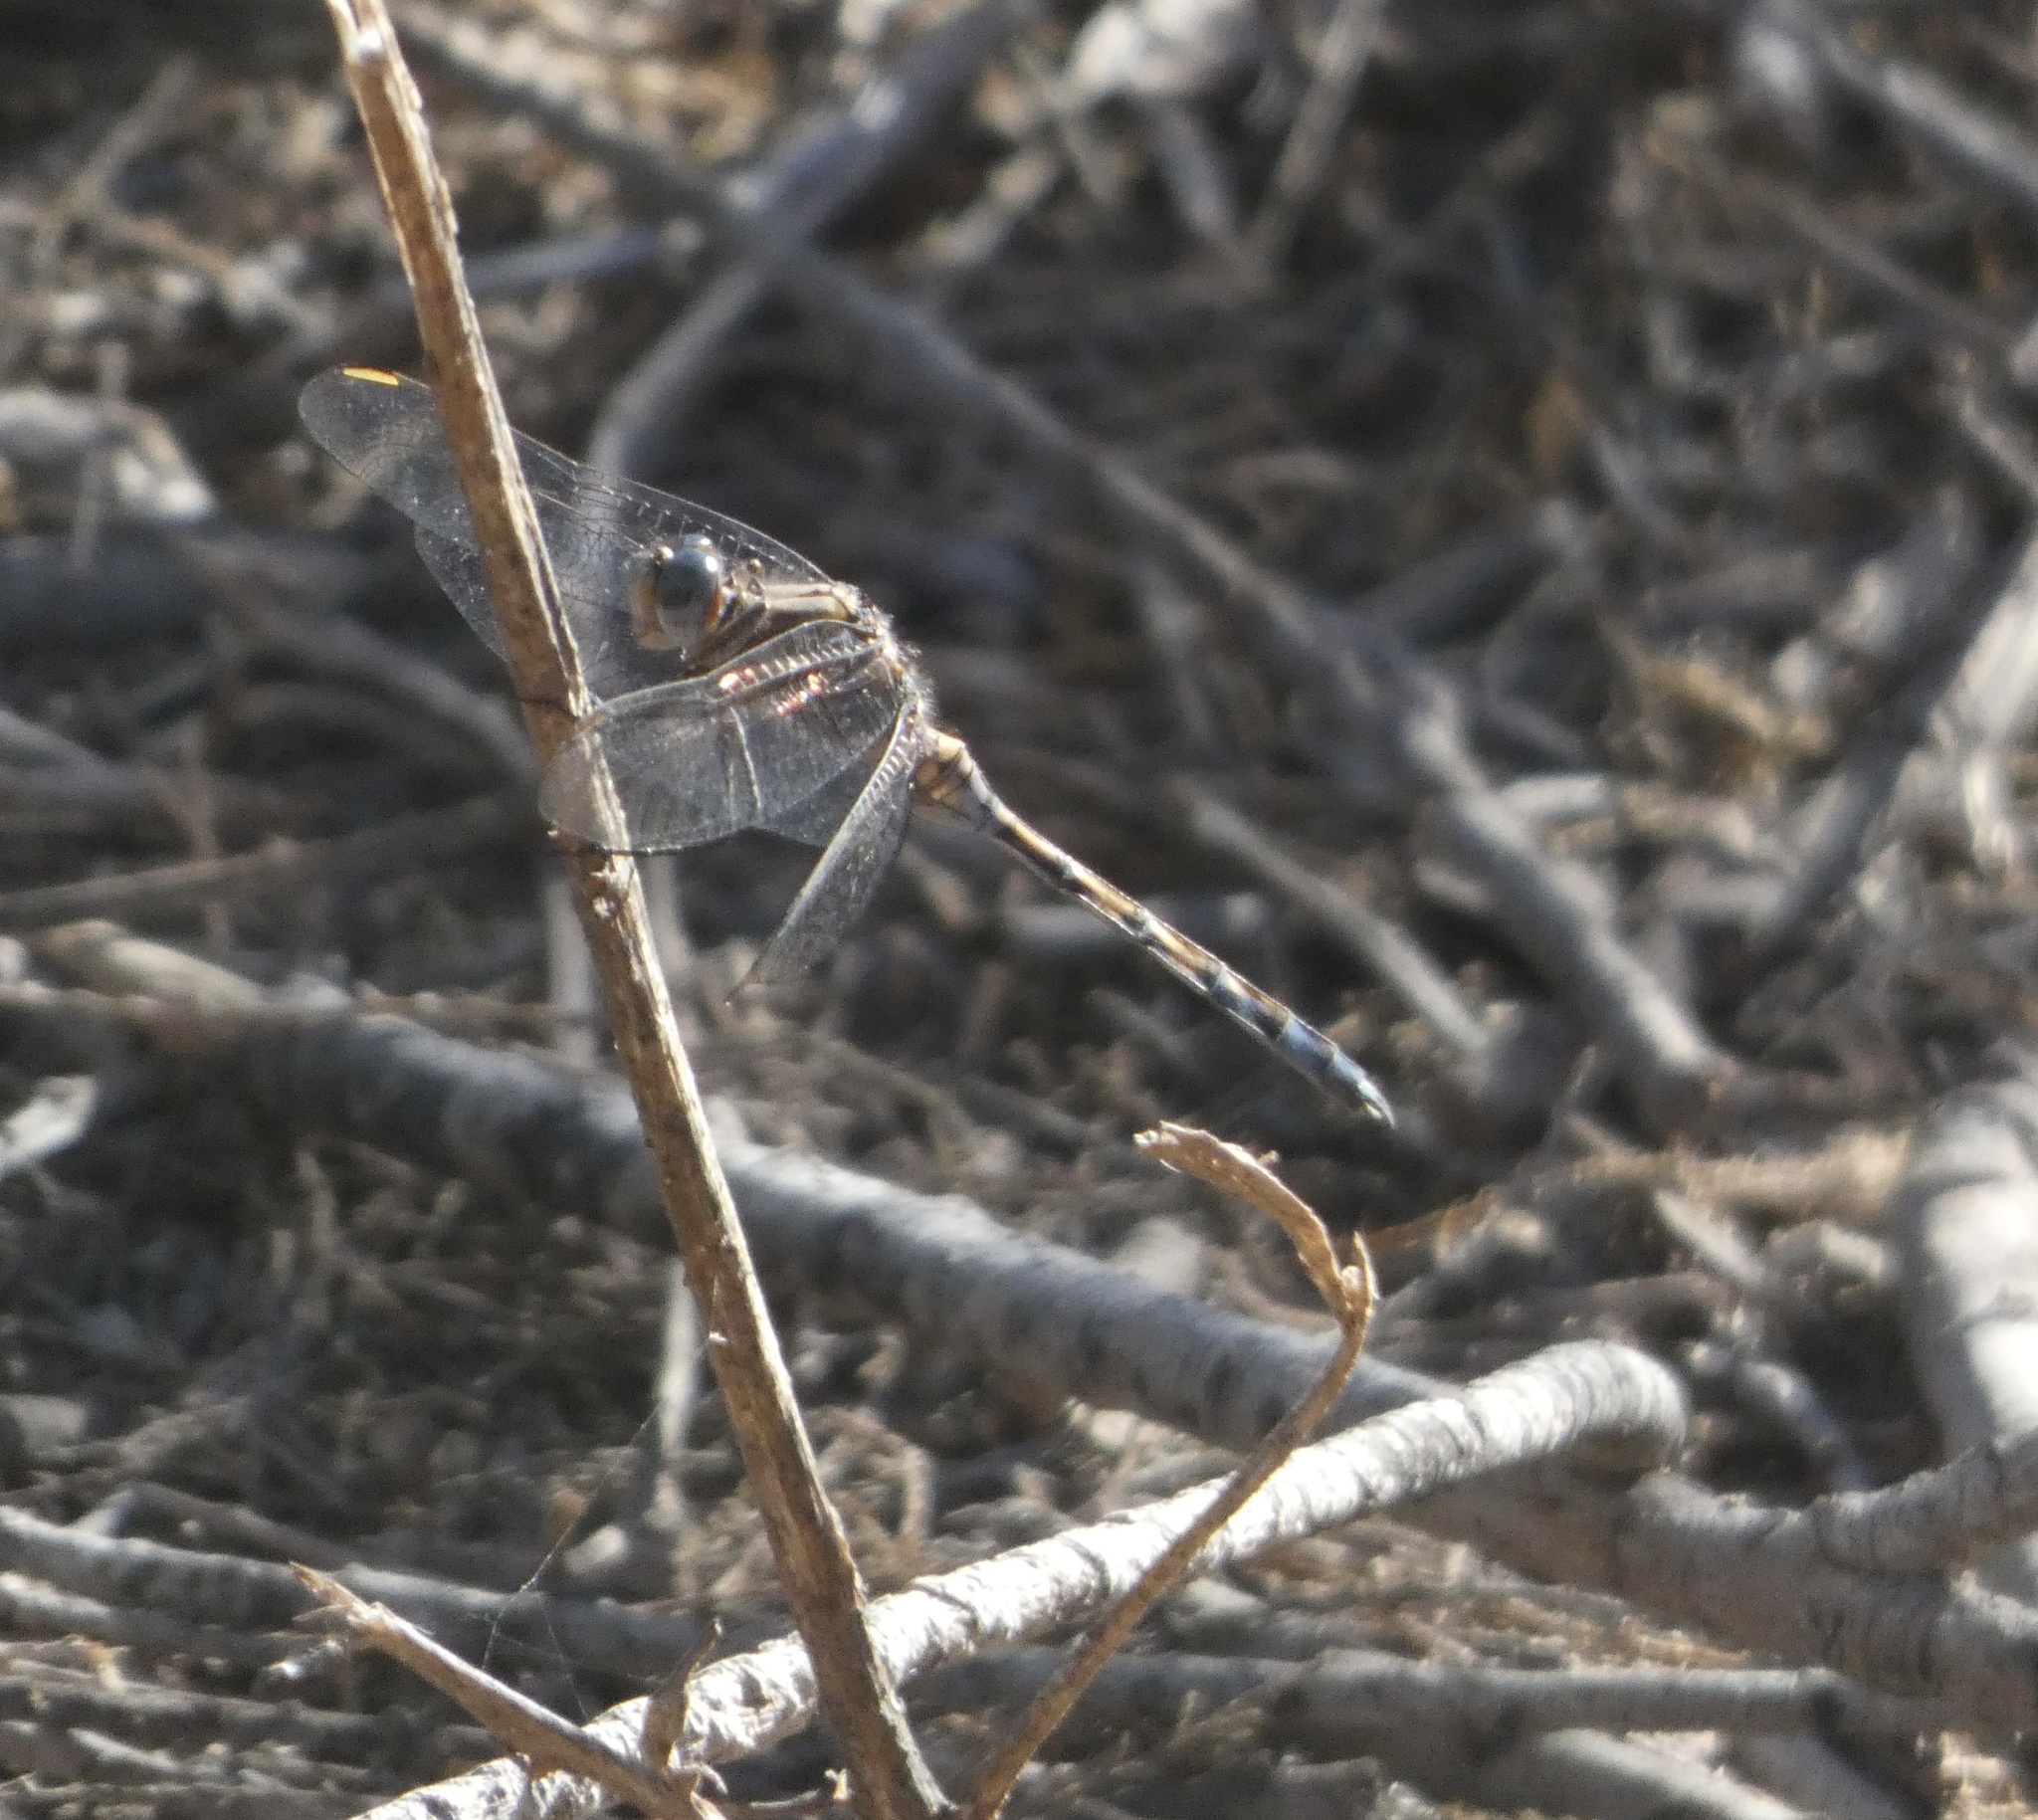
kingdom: Animalia
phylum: Arthropoda
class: Insecta
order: Odonata
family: Libellulidae
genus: Orthetrum
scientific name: Orthetrum chrysostigma
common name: Epaulet skimmer
